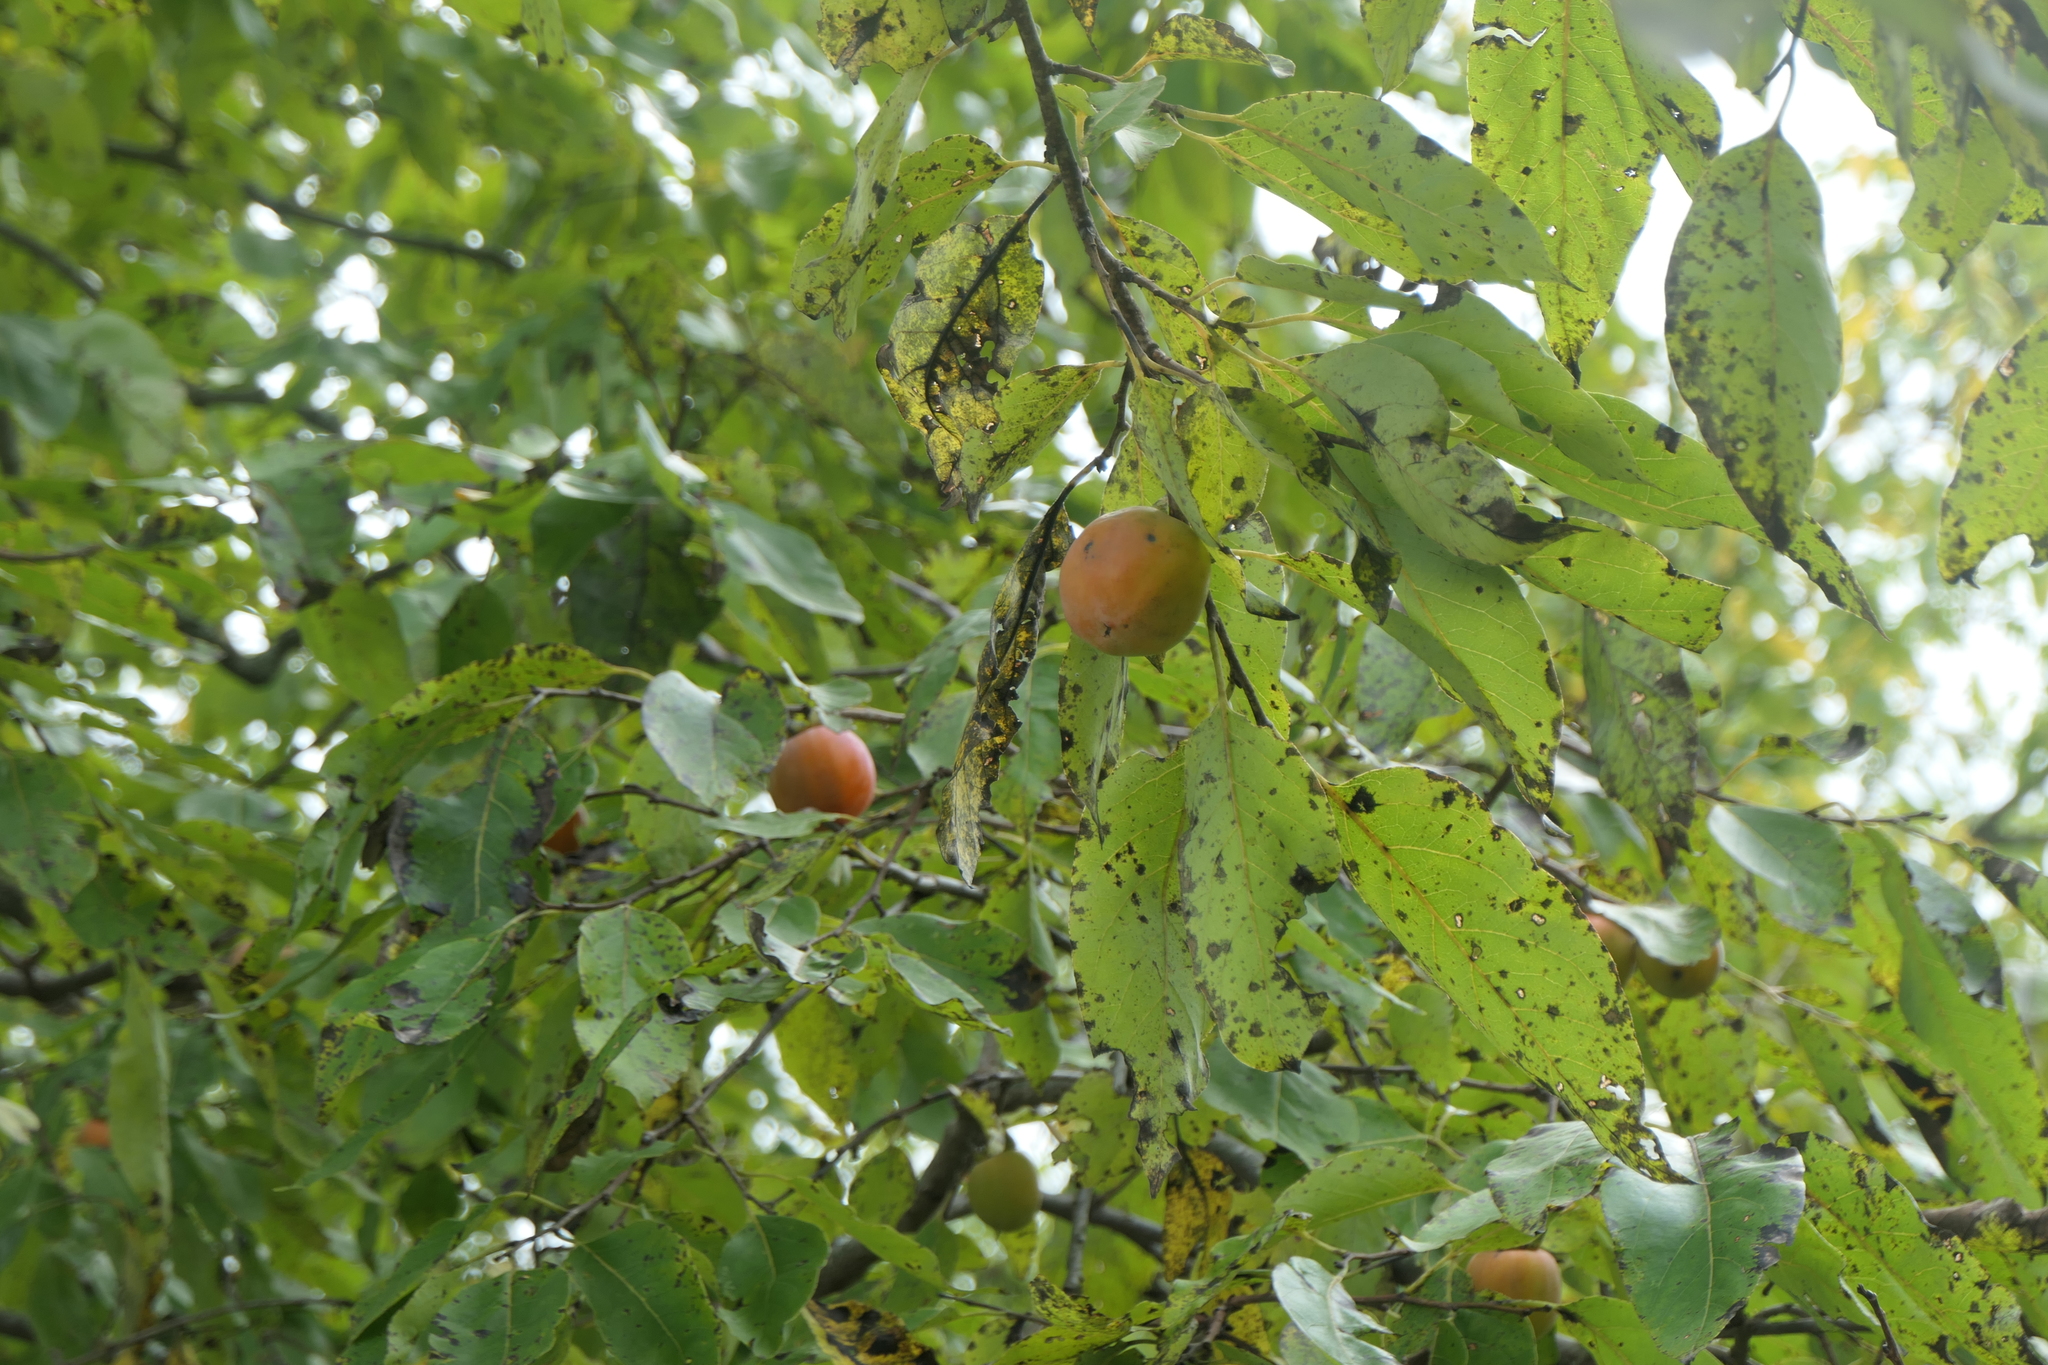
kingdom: Plantae
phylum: Tracheophyta
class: Magnoliopsida
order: Ericales
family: Ebenaceae
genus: Diospyros
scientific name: Diospyros virginiana
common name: Persimmon
